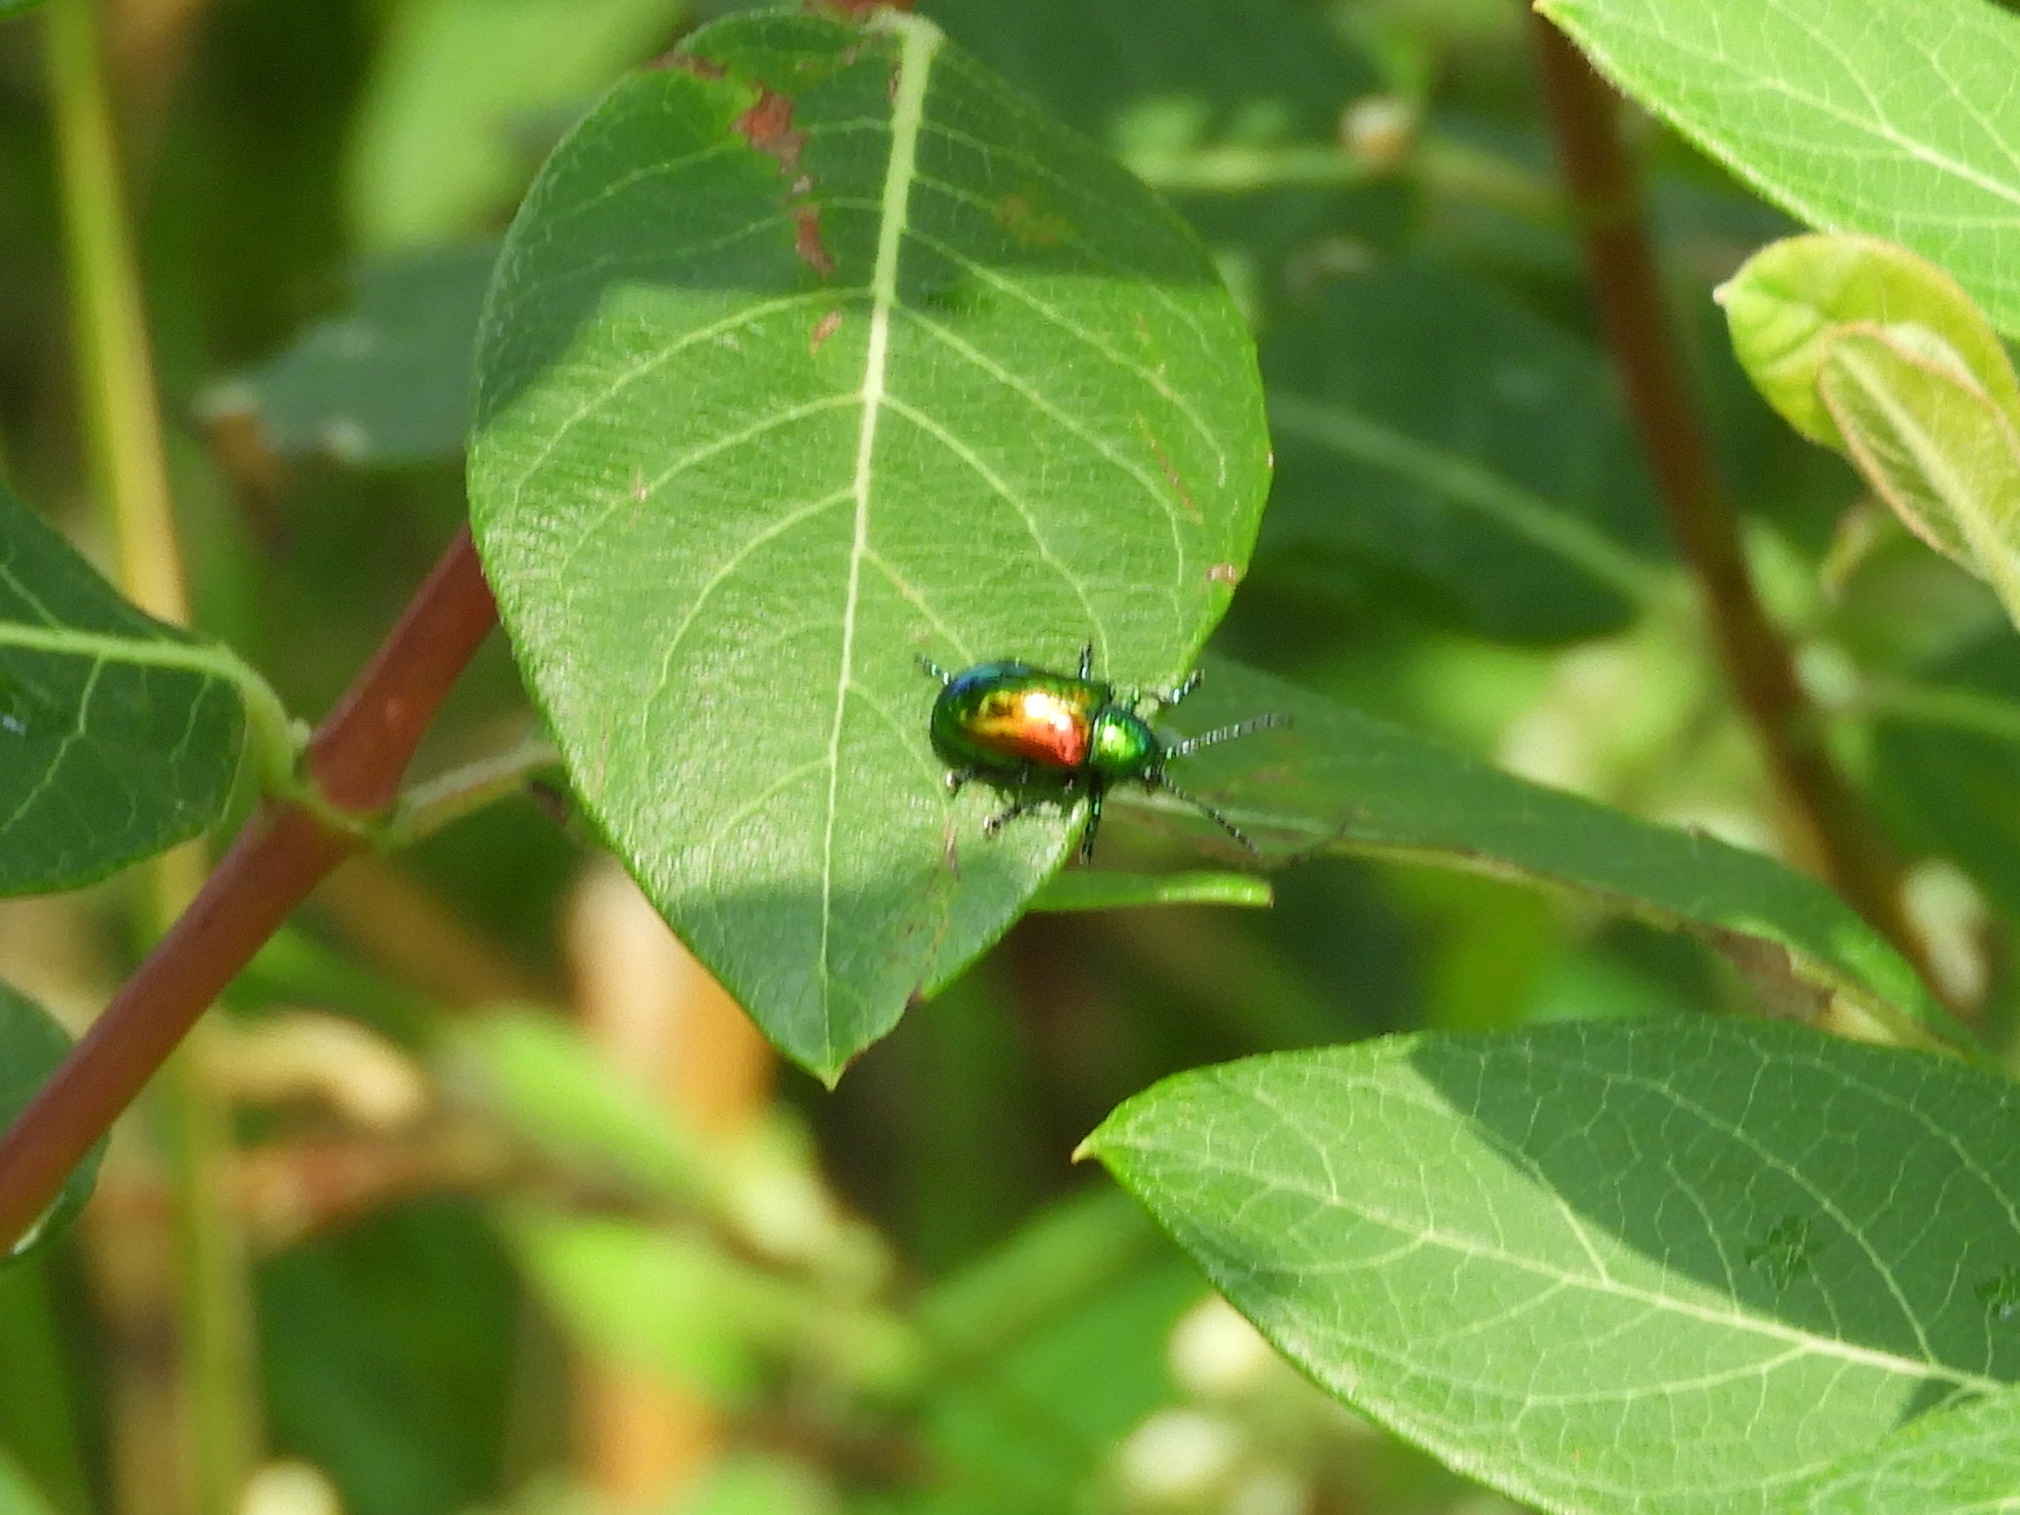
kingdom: Animalia
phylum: Arthropoda
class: Insecta
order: Coleoptera
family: Chrysomelidae
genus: Chrysochus
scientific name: Chrysochus auratus
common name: Dogbane leaf beetle
